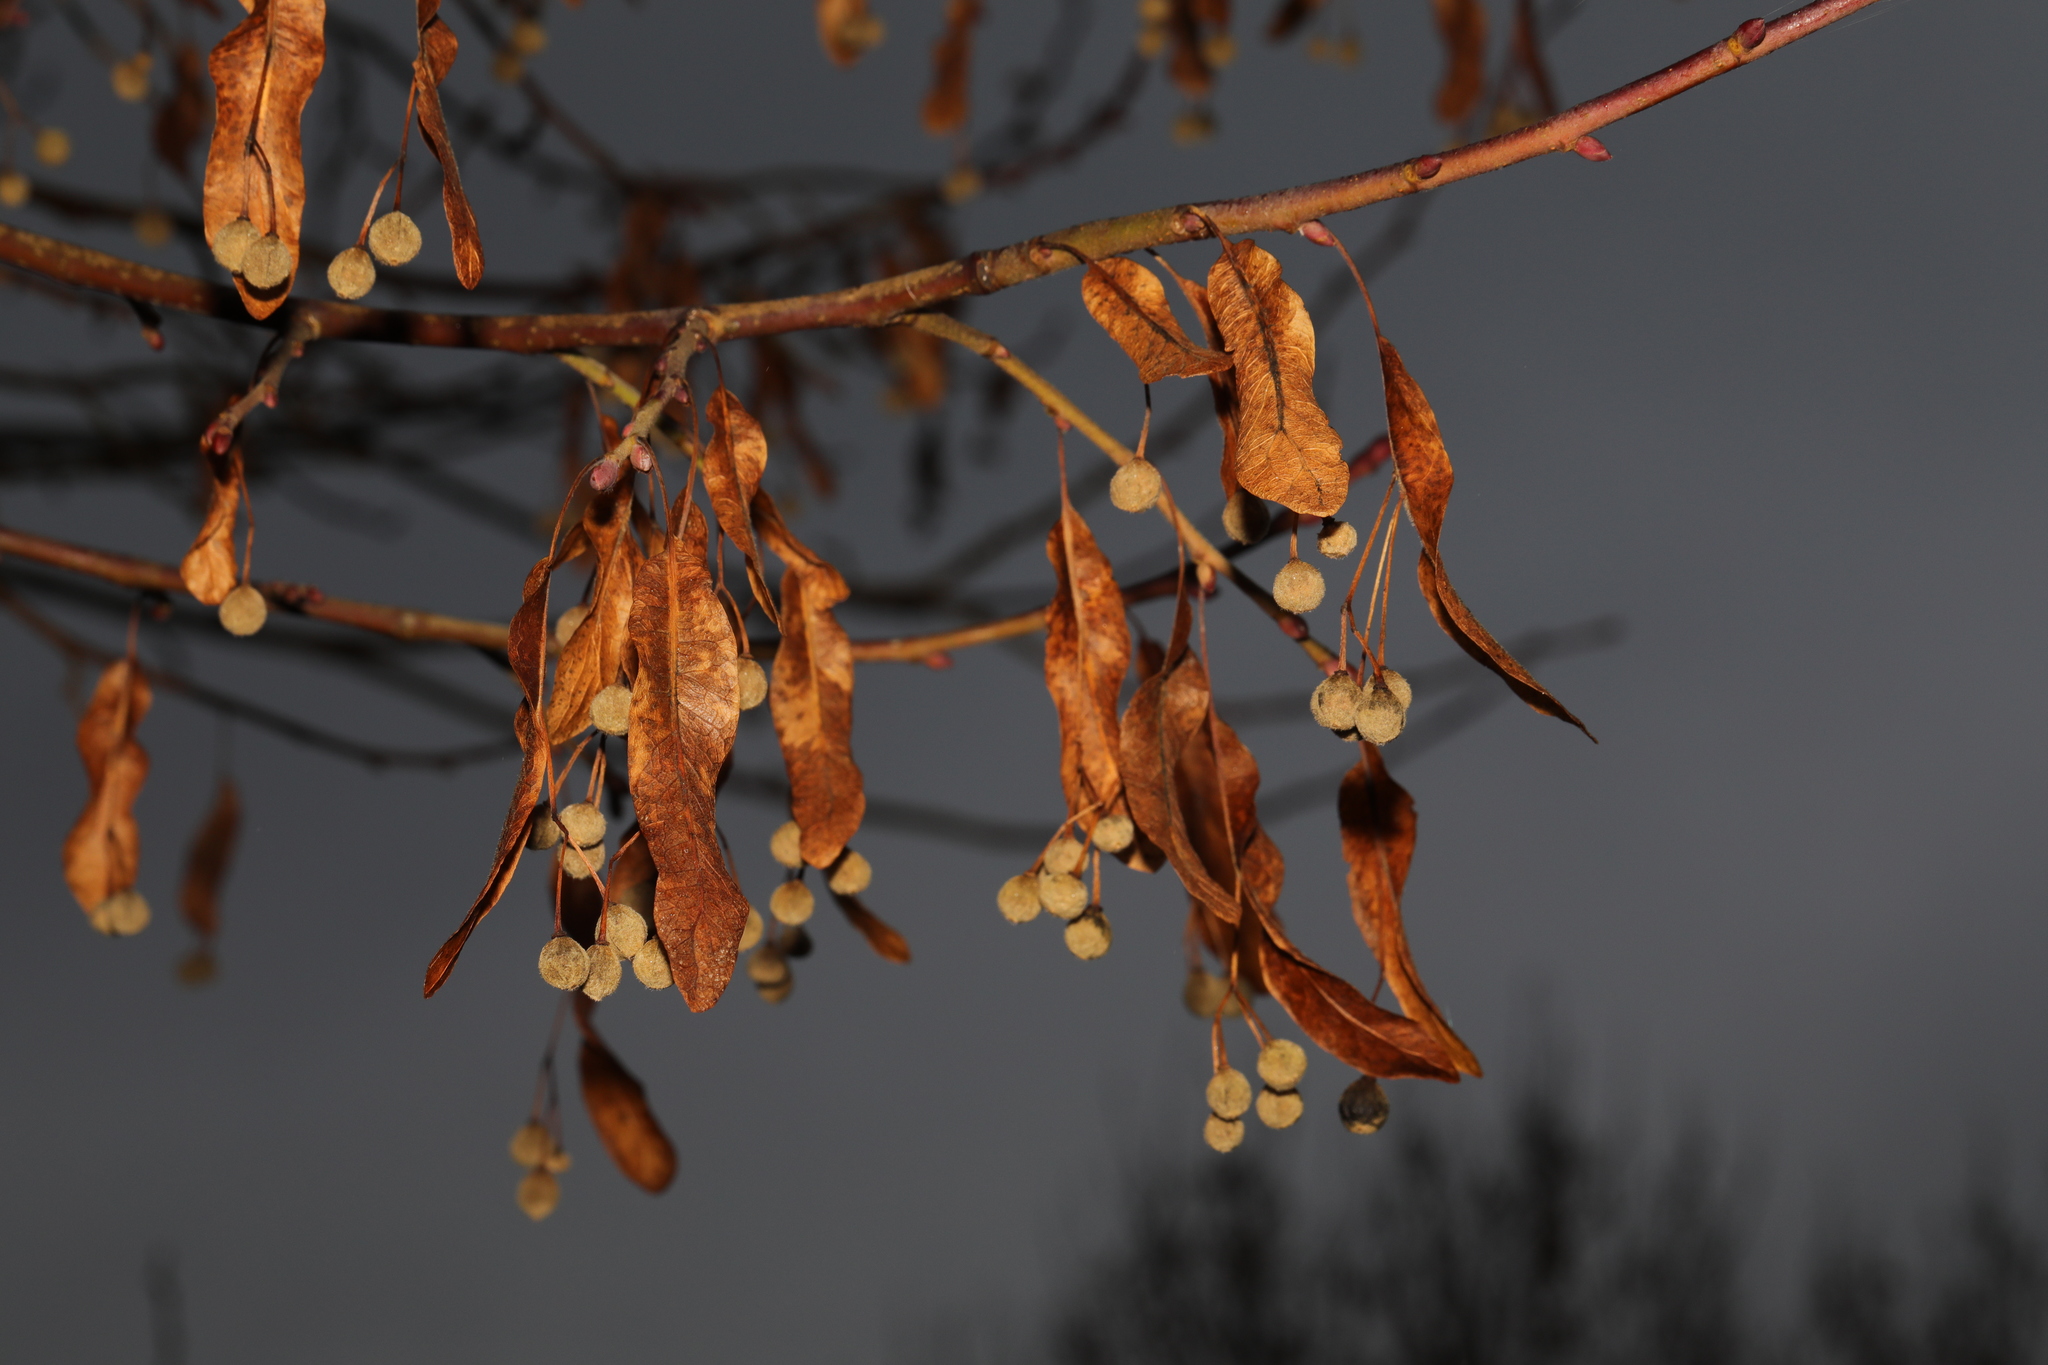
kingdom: Plantae
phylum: Tracheophyta
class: Magnoliopsida
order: Malvales
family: Malvaceae
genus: Tilia
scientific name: Tilia europaea
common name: European linden
